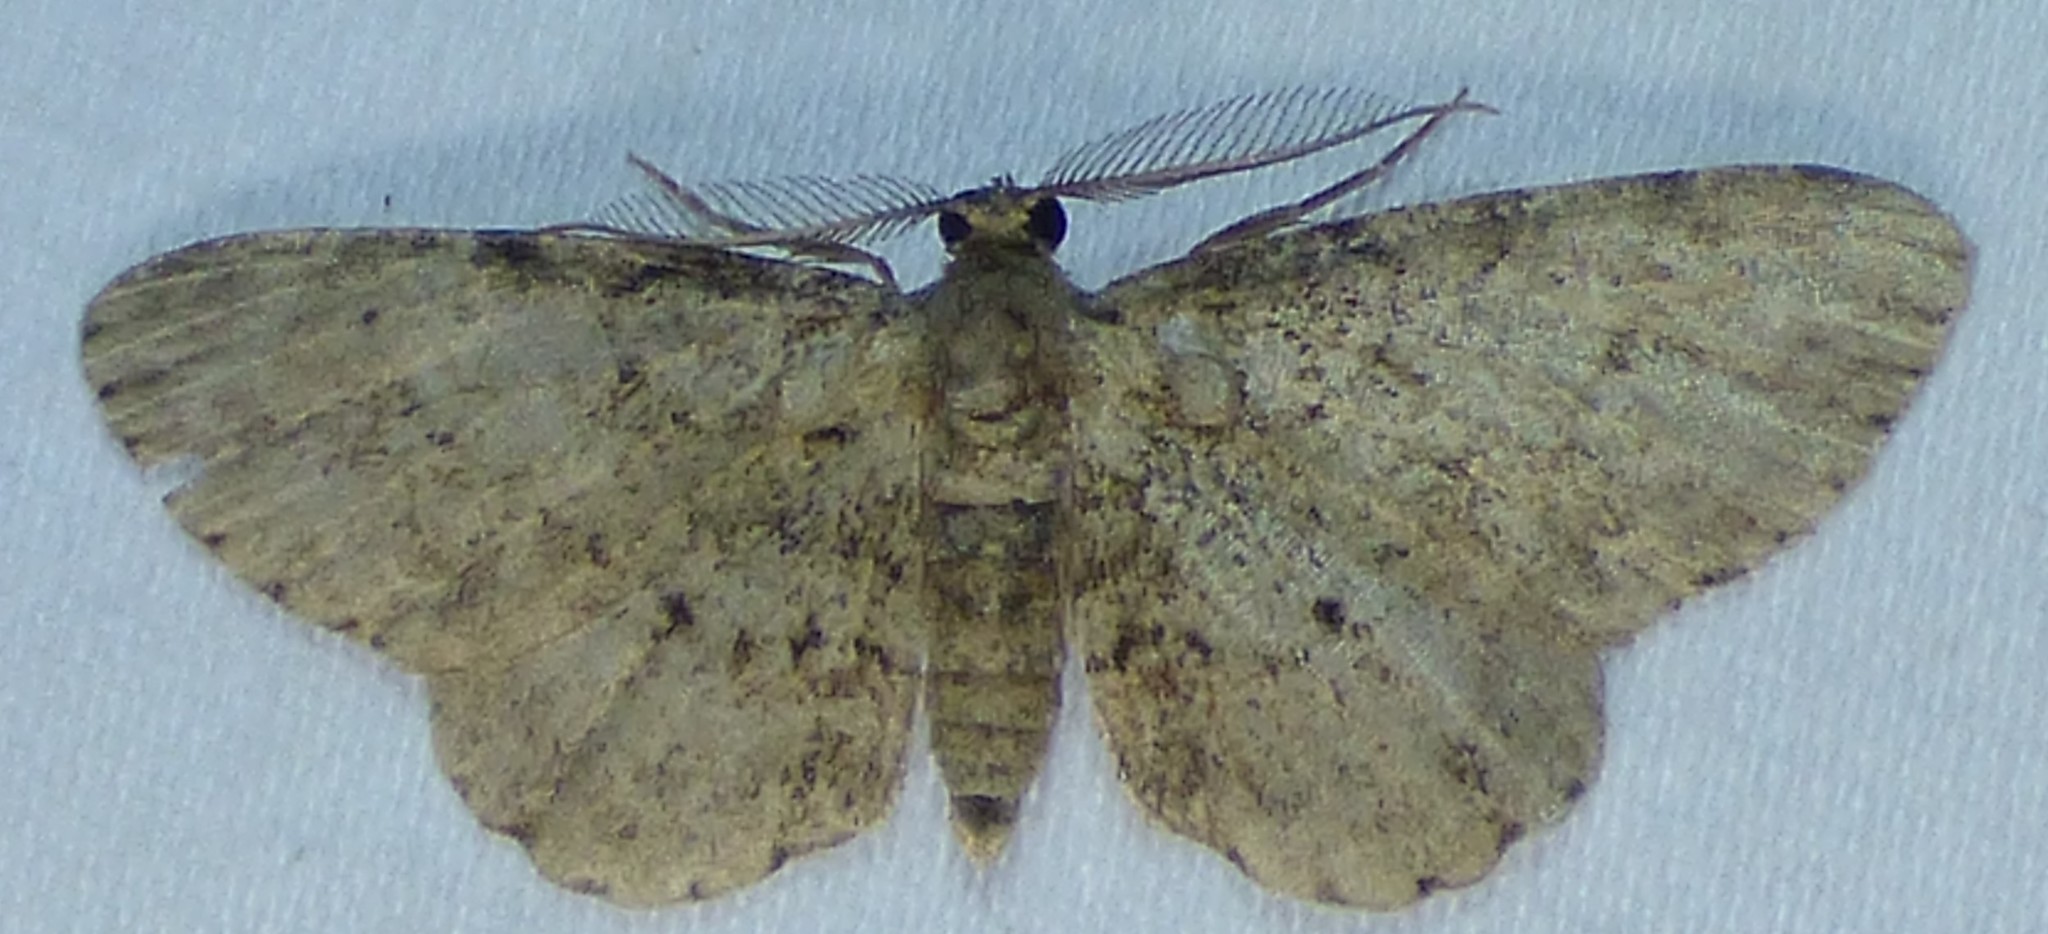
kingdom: Animalia
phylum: Arthropoda
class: Insecta
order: Lepidoptera
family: Geometridae
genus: Glenoides
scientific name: Glenoides texanaria
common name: Texas gray
